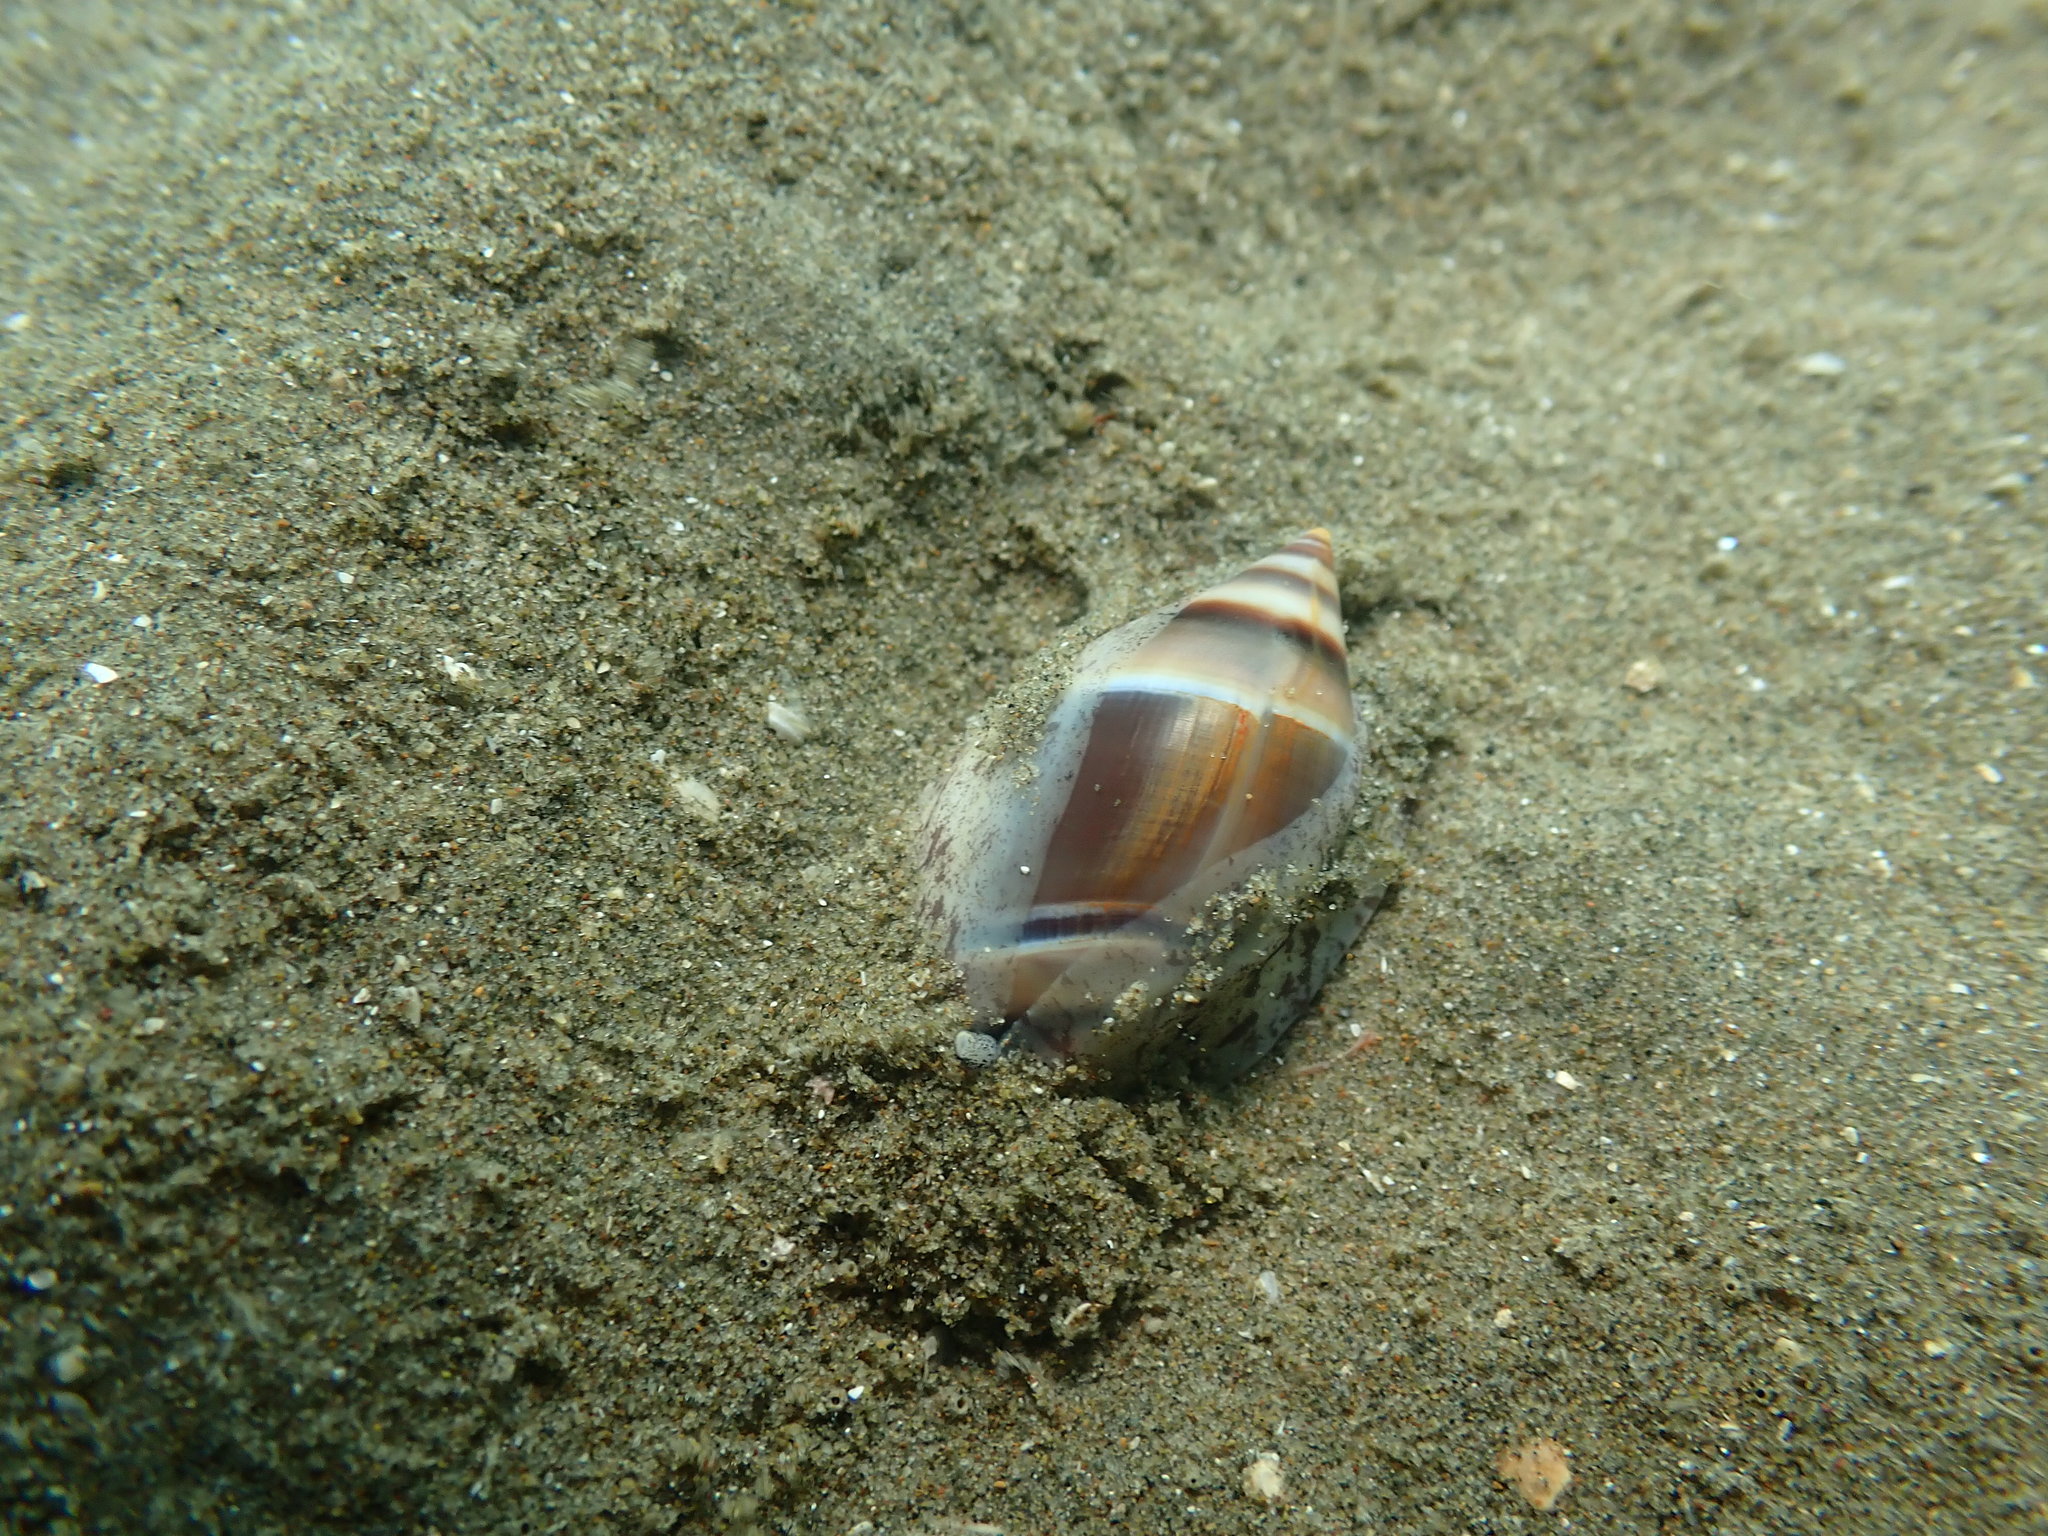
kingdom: Animalia
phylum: Mollusca
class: Gastropoda
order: Neogastropoda
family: Ancillariidae
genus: Amalda
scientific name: Amalda australis
